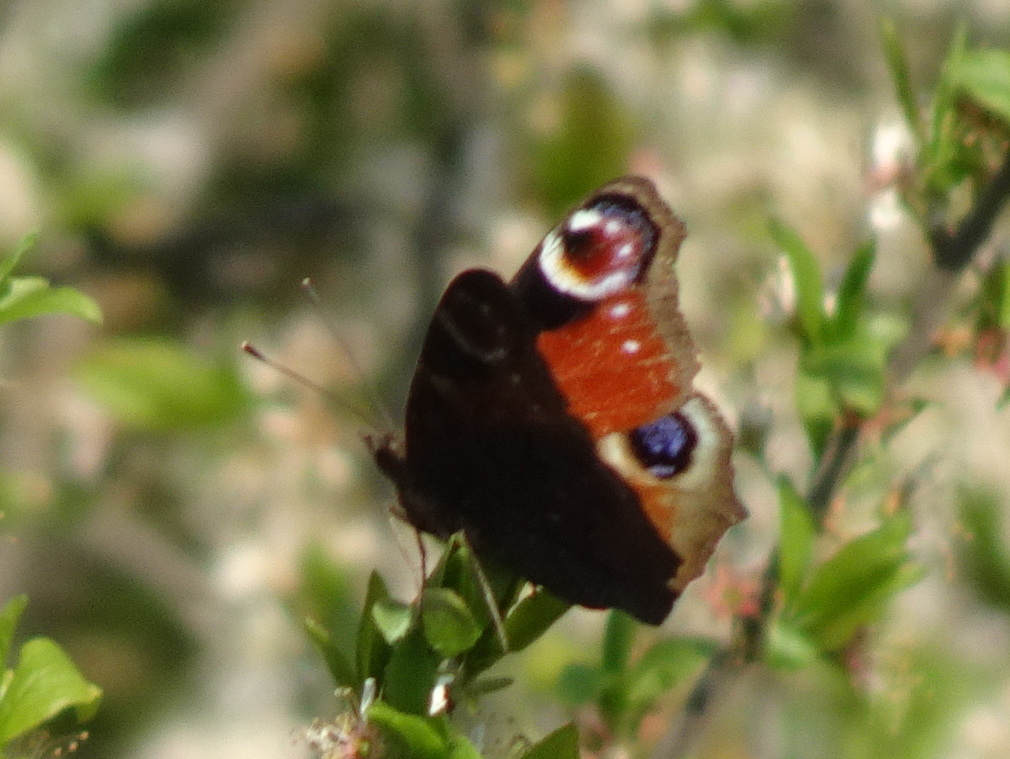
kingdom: Animalia
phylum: Arthropoda
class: Insecta
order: Lepidoptera
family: Nymphalidae
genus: Aglais
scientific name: Aglais io
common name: Peacock
